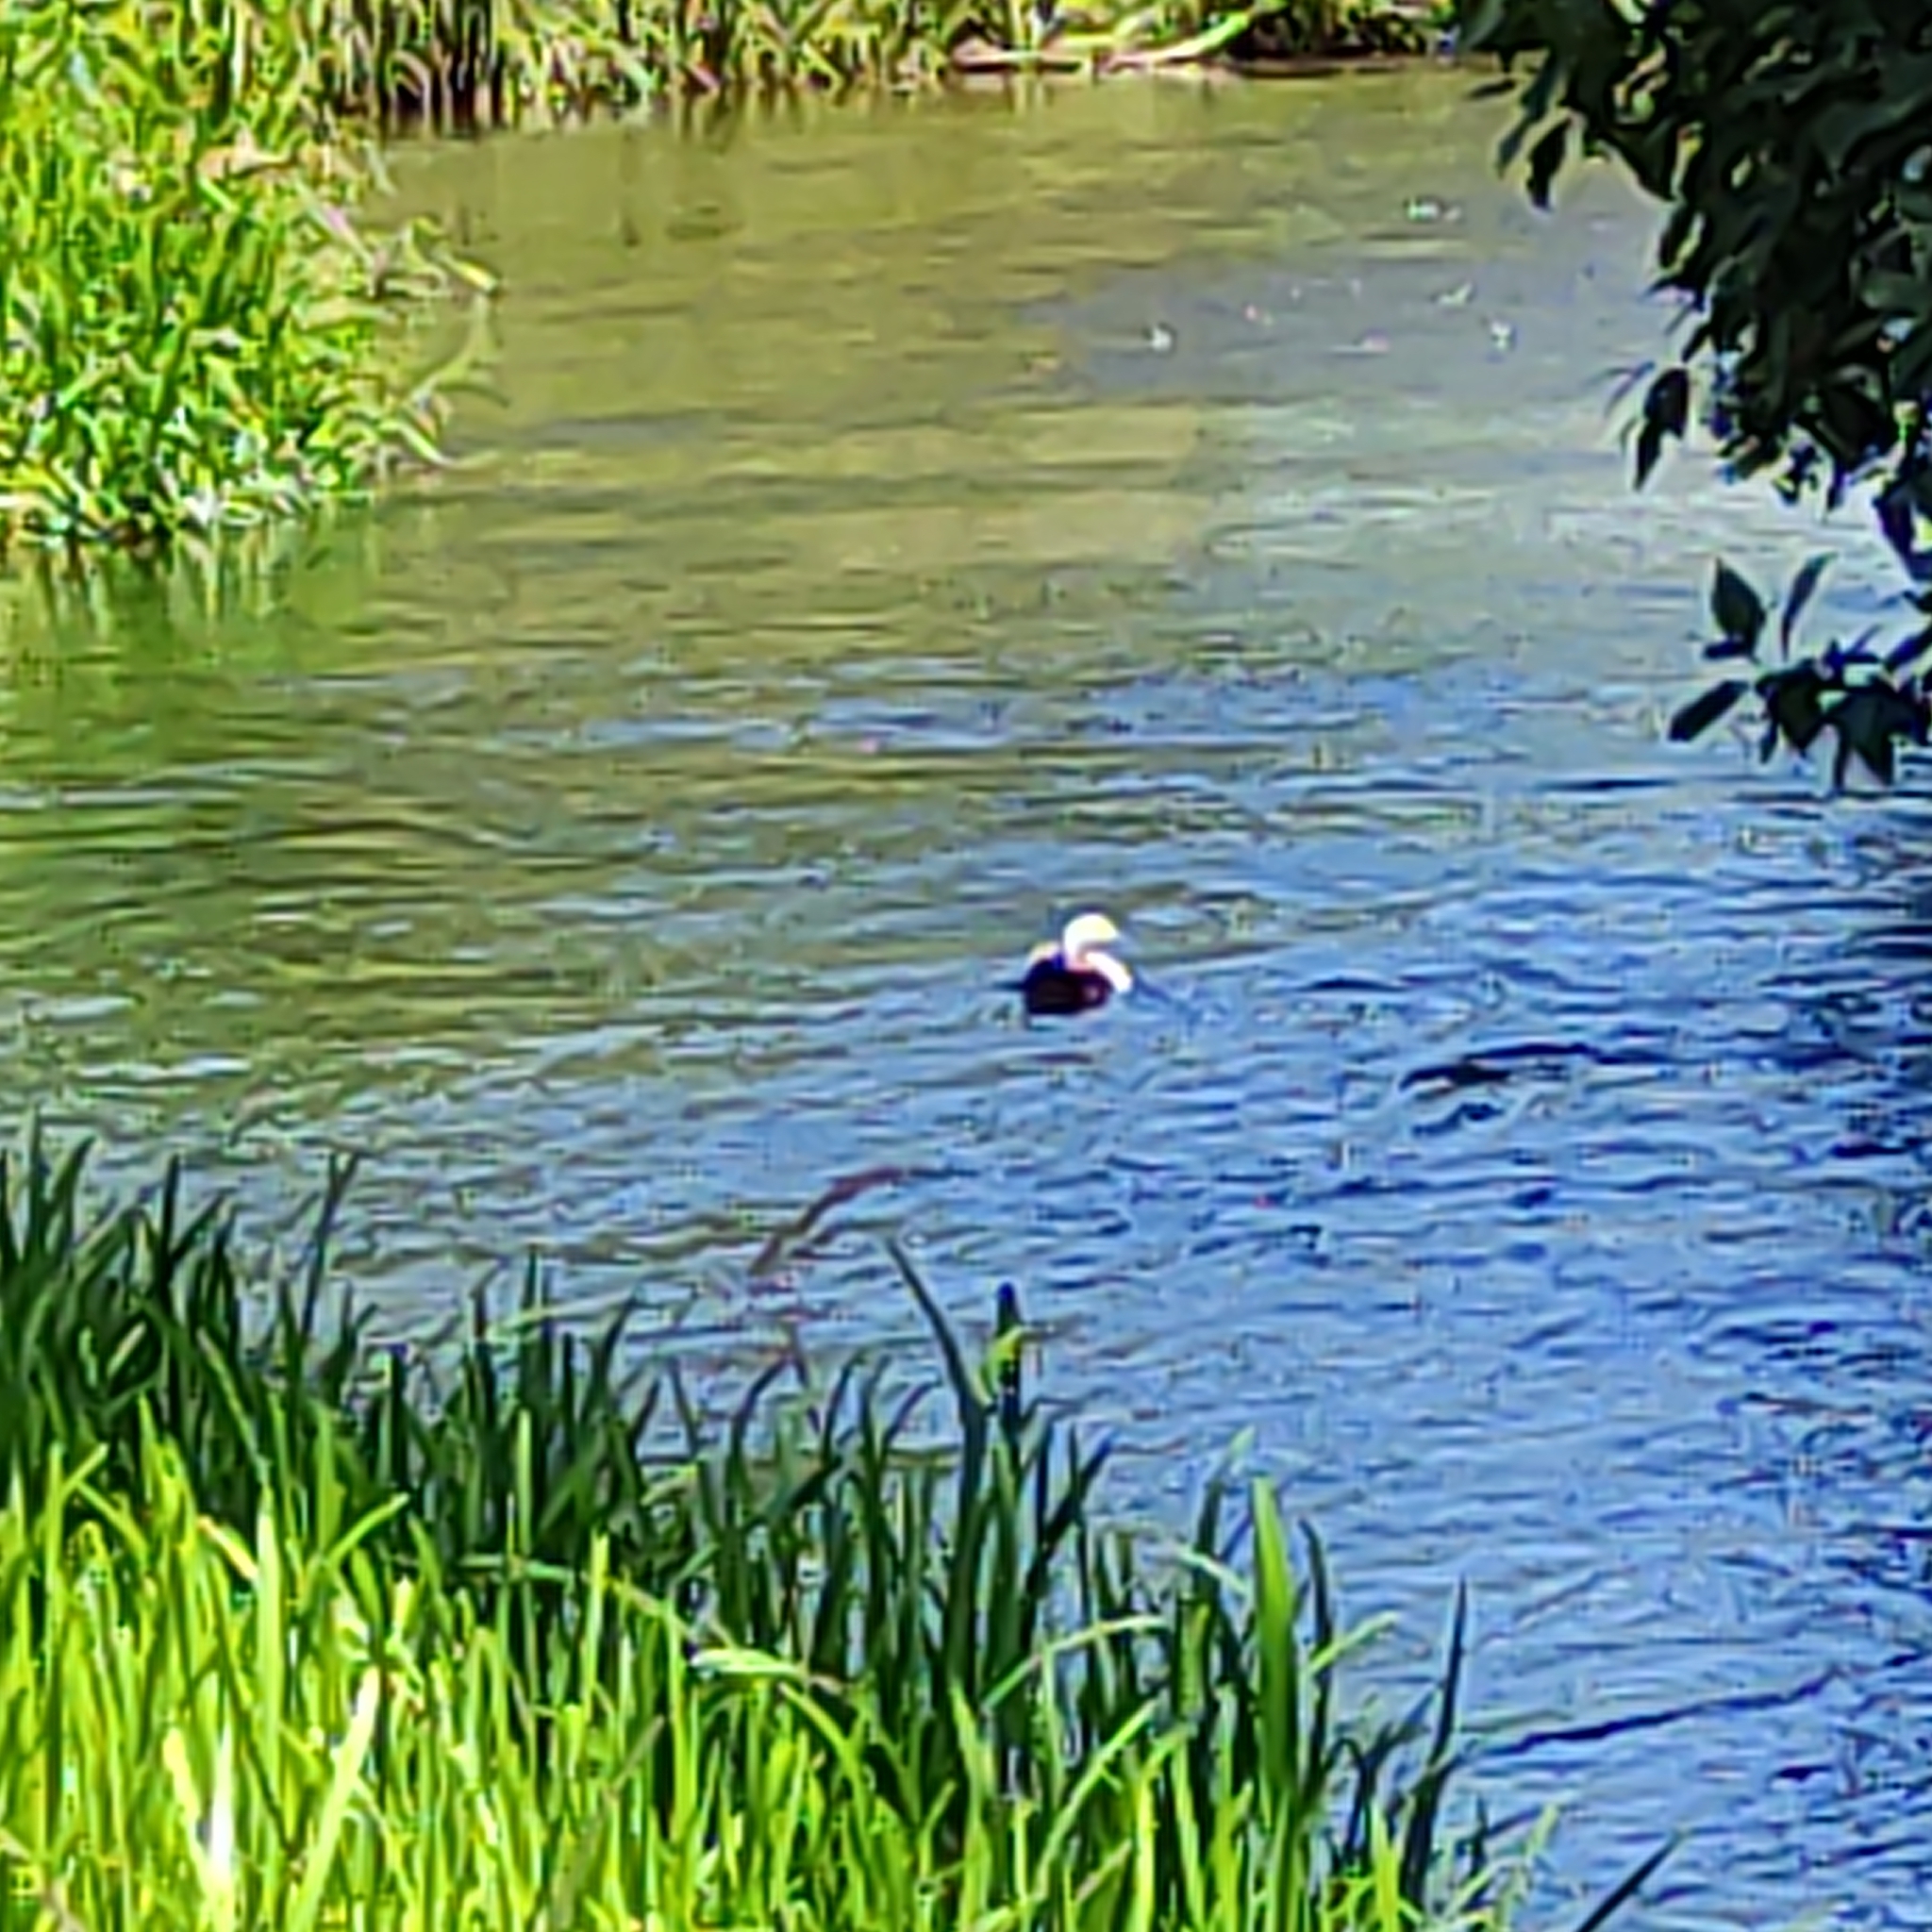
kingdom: Animalia
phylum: Chordata
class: Aves
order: Anseriformes
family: Anatidae
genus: Tadorna
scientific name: Tadorna variegata
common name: Paradise shelduck
